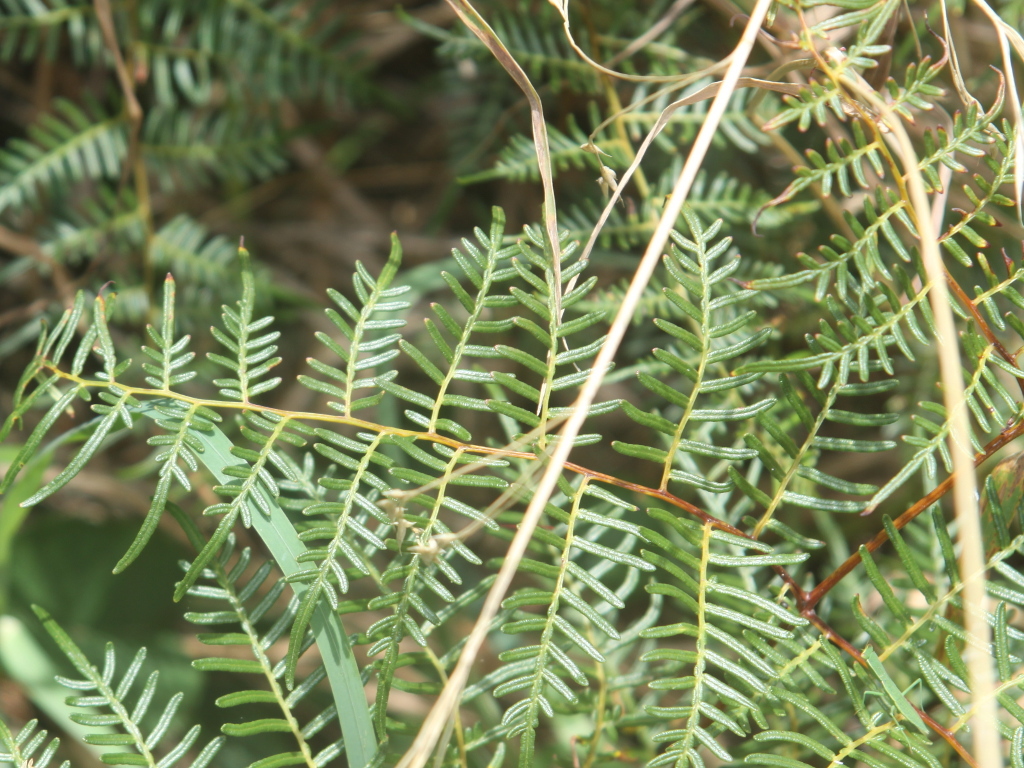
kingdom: Plantae
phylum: Tracheophyta
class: Polypodiopsida
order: Polypodiales
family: Dennstaedtiaceae
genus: Pteridium
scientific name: Pteridium esculentum
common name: Bracken fern
